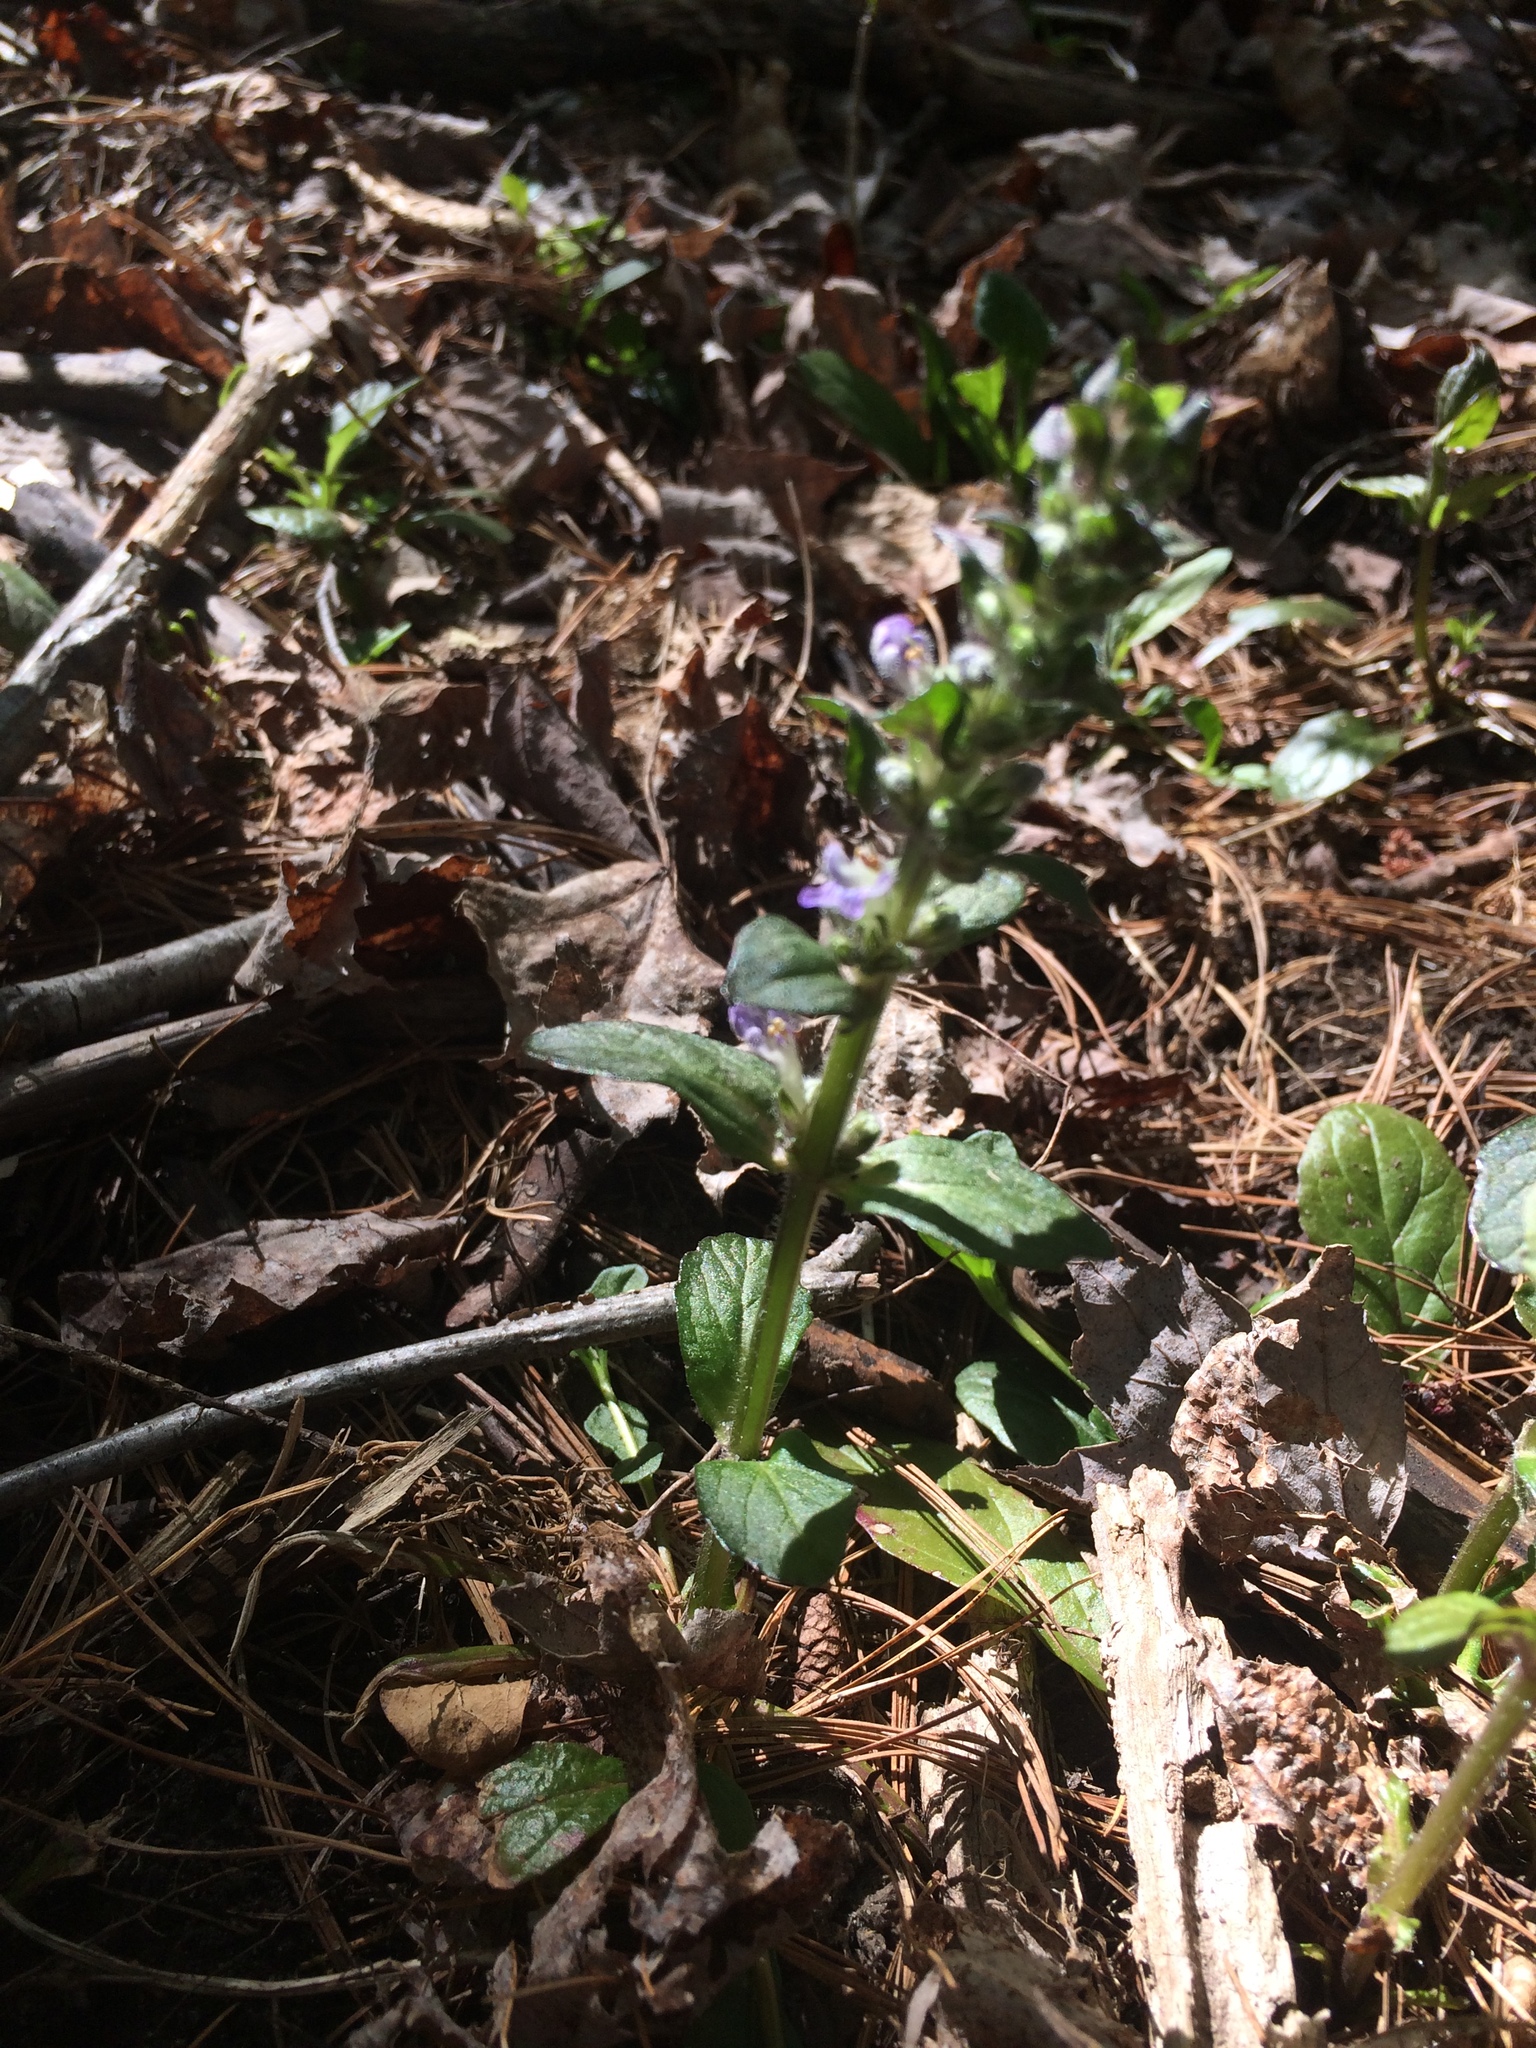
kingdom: Plantae
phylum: Tracheophyta
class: Magnoliopsida
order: Lamiales
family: Lamiaceae
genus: Ajuga
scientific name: Ajuga reptans
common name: Bugle
